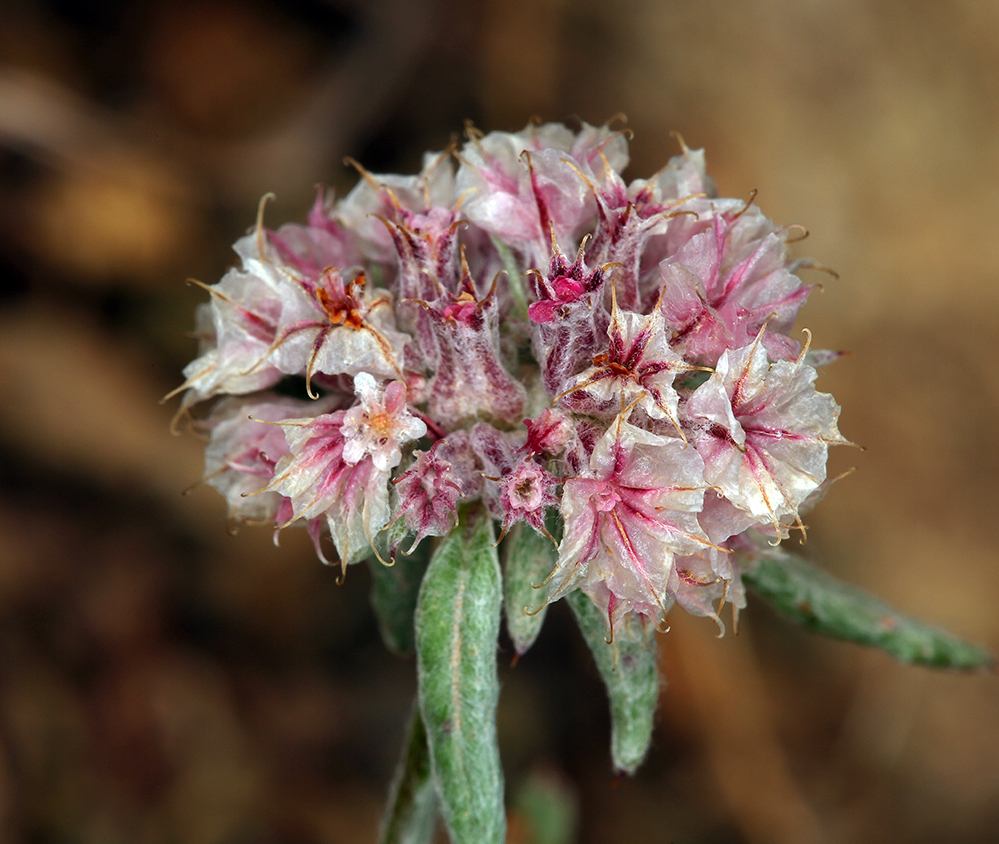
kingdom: Plantae
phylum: Tracheophyta
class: Magnoliopsida
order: Caryophyllales
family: Polygonaceae
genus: Chorizanthe
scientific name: Chorizanthe membranacea
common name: Pink spineflower
